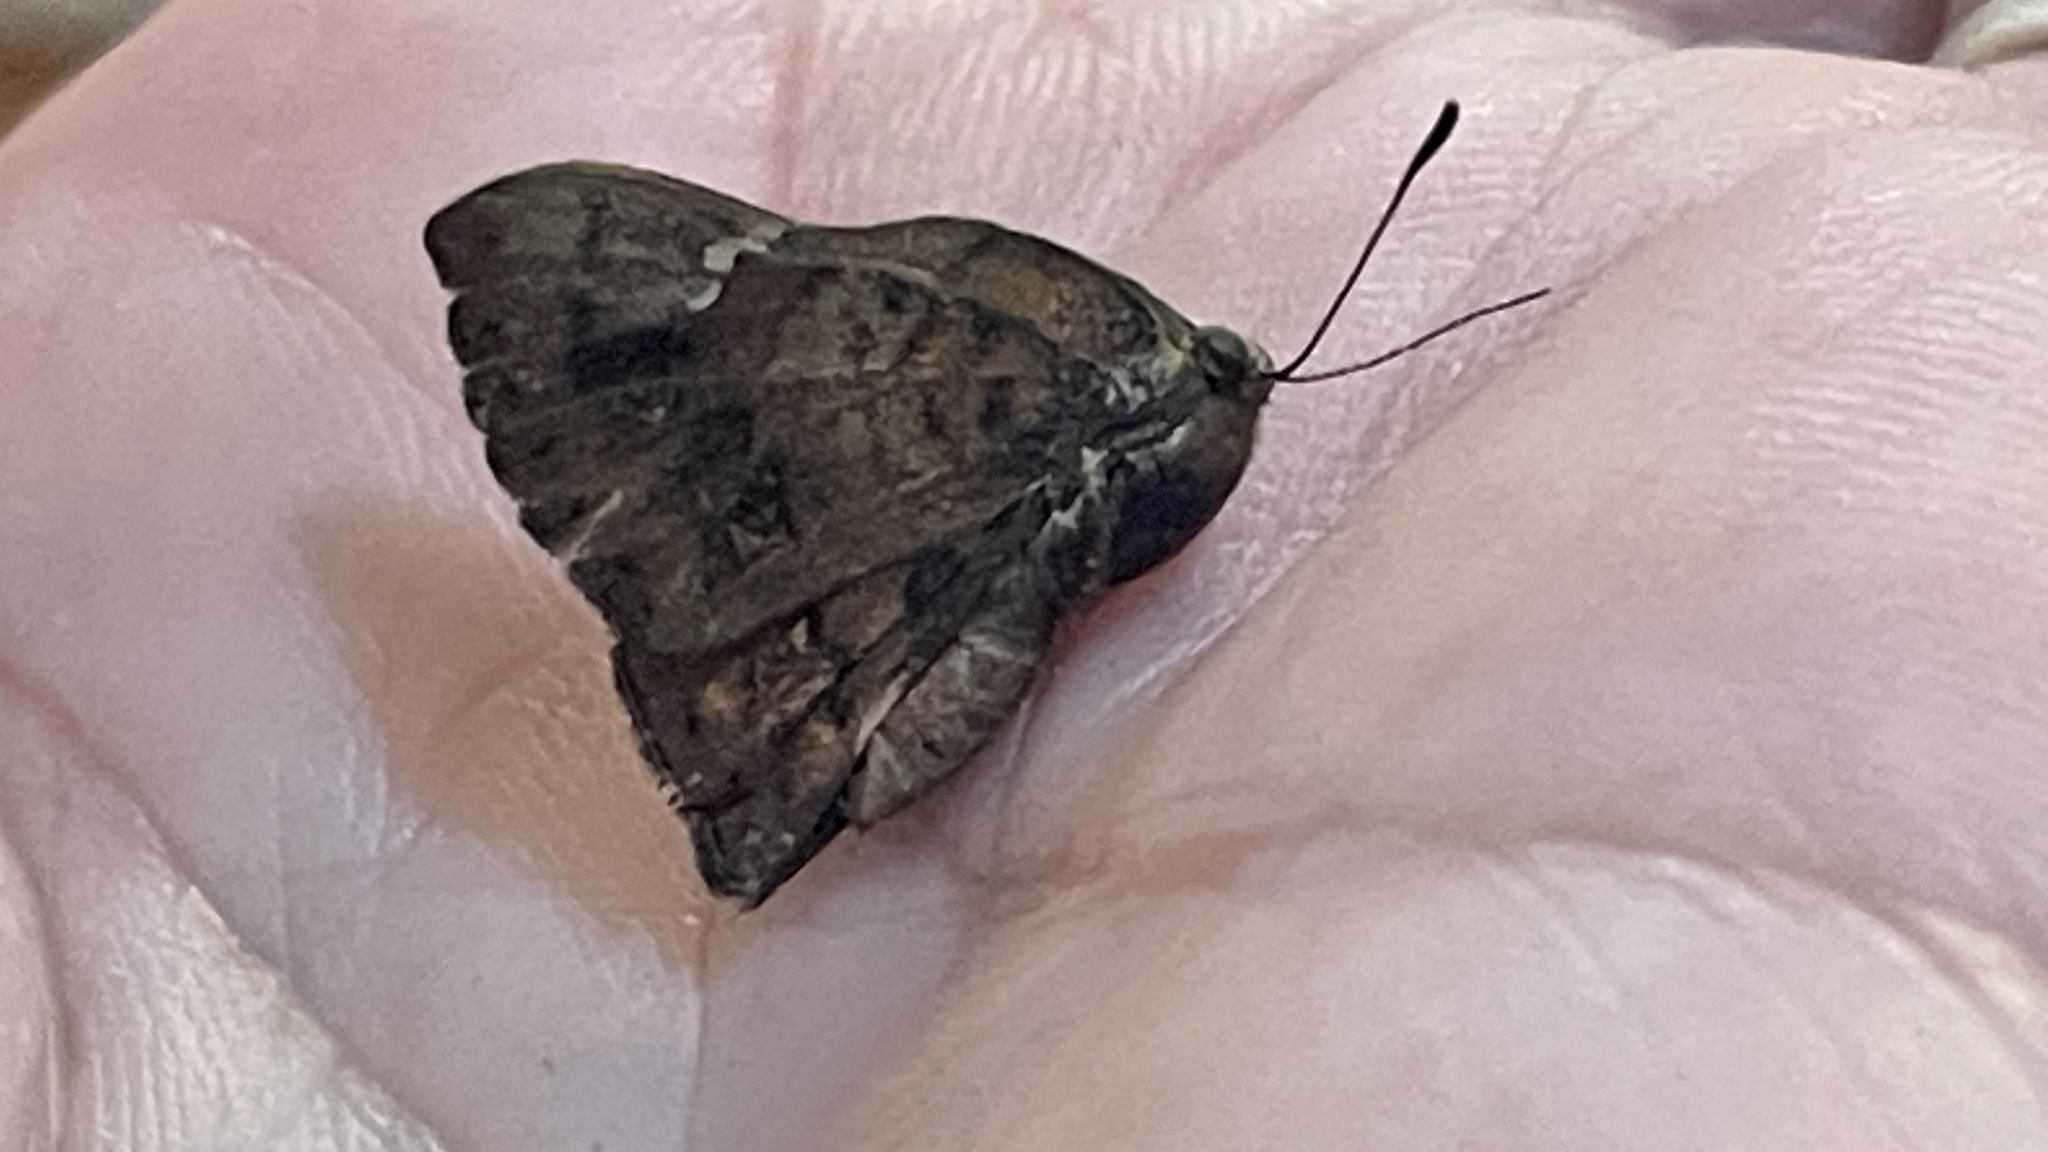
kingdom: Animalia
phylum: Arthropoda
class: Insecta
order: Lepidoptera
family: Riodinidae
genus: Curvie
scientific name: Curvie emesia
